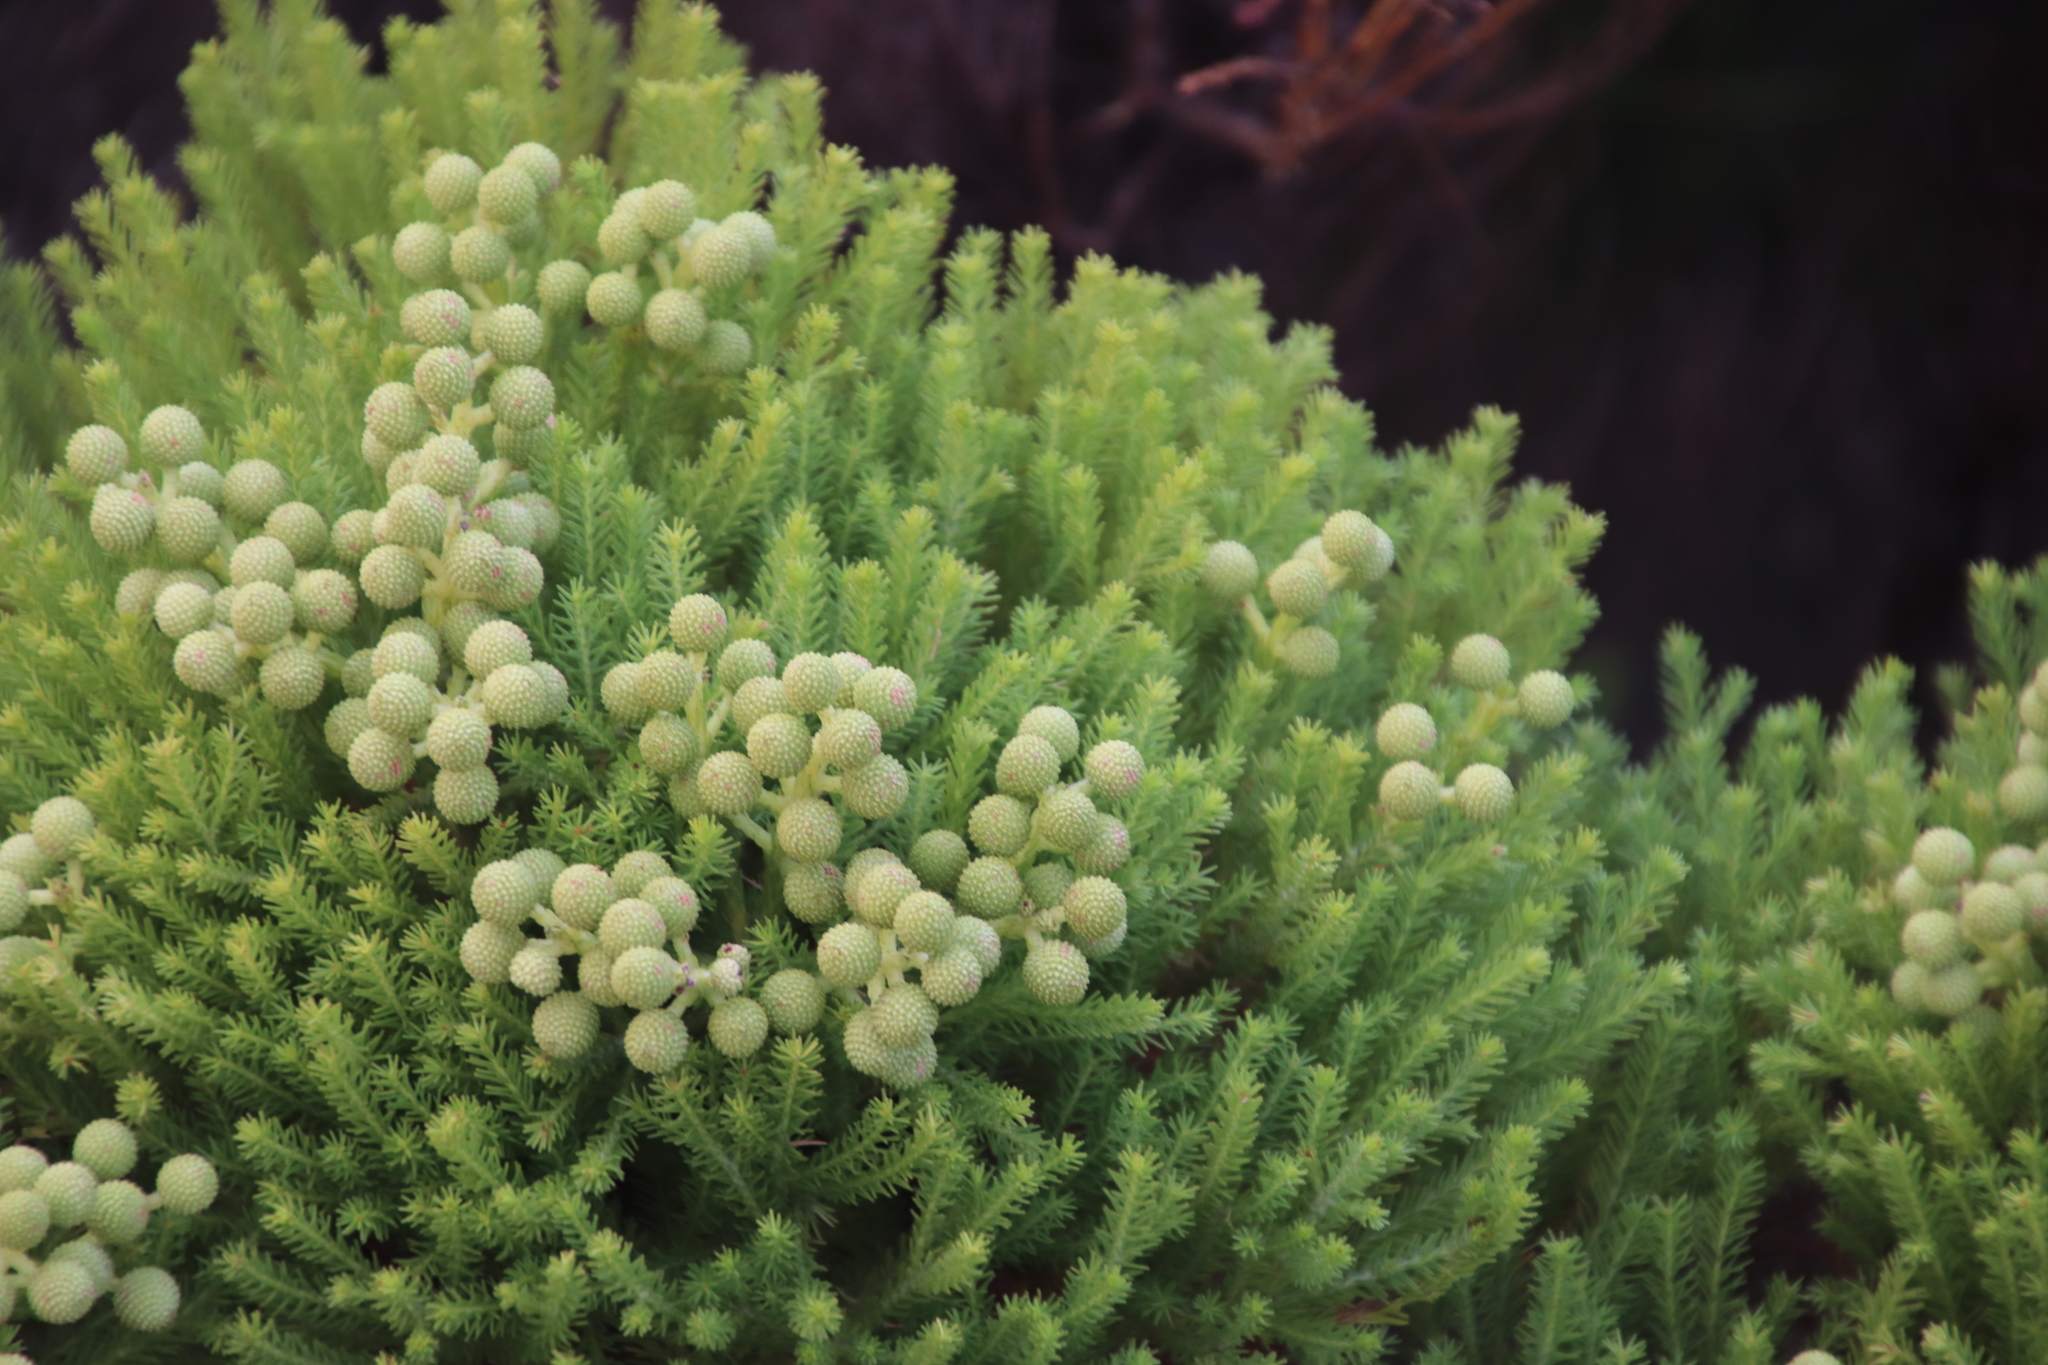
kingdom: Plantae
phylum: Tracheophyta
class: Magnoliopsida
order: Bruniales
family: Bruniaceae
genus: Berzelia
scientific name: Berzelia lanuginosa
